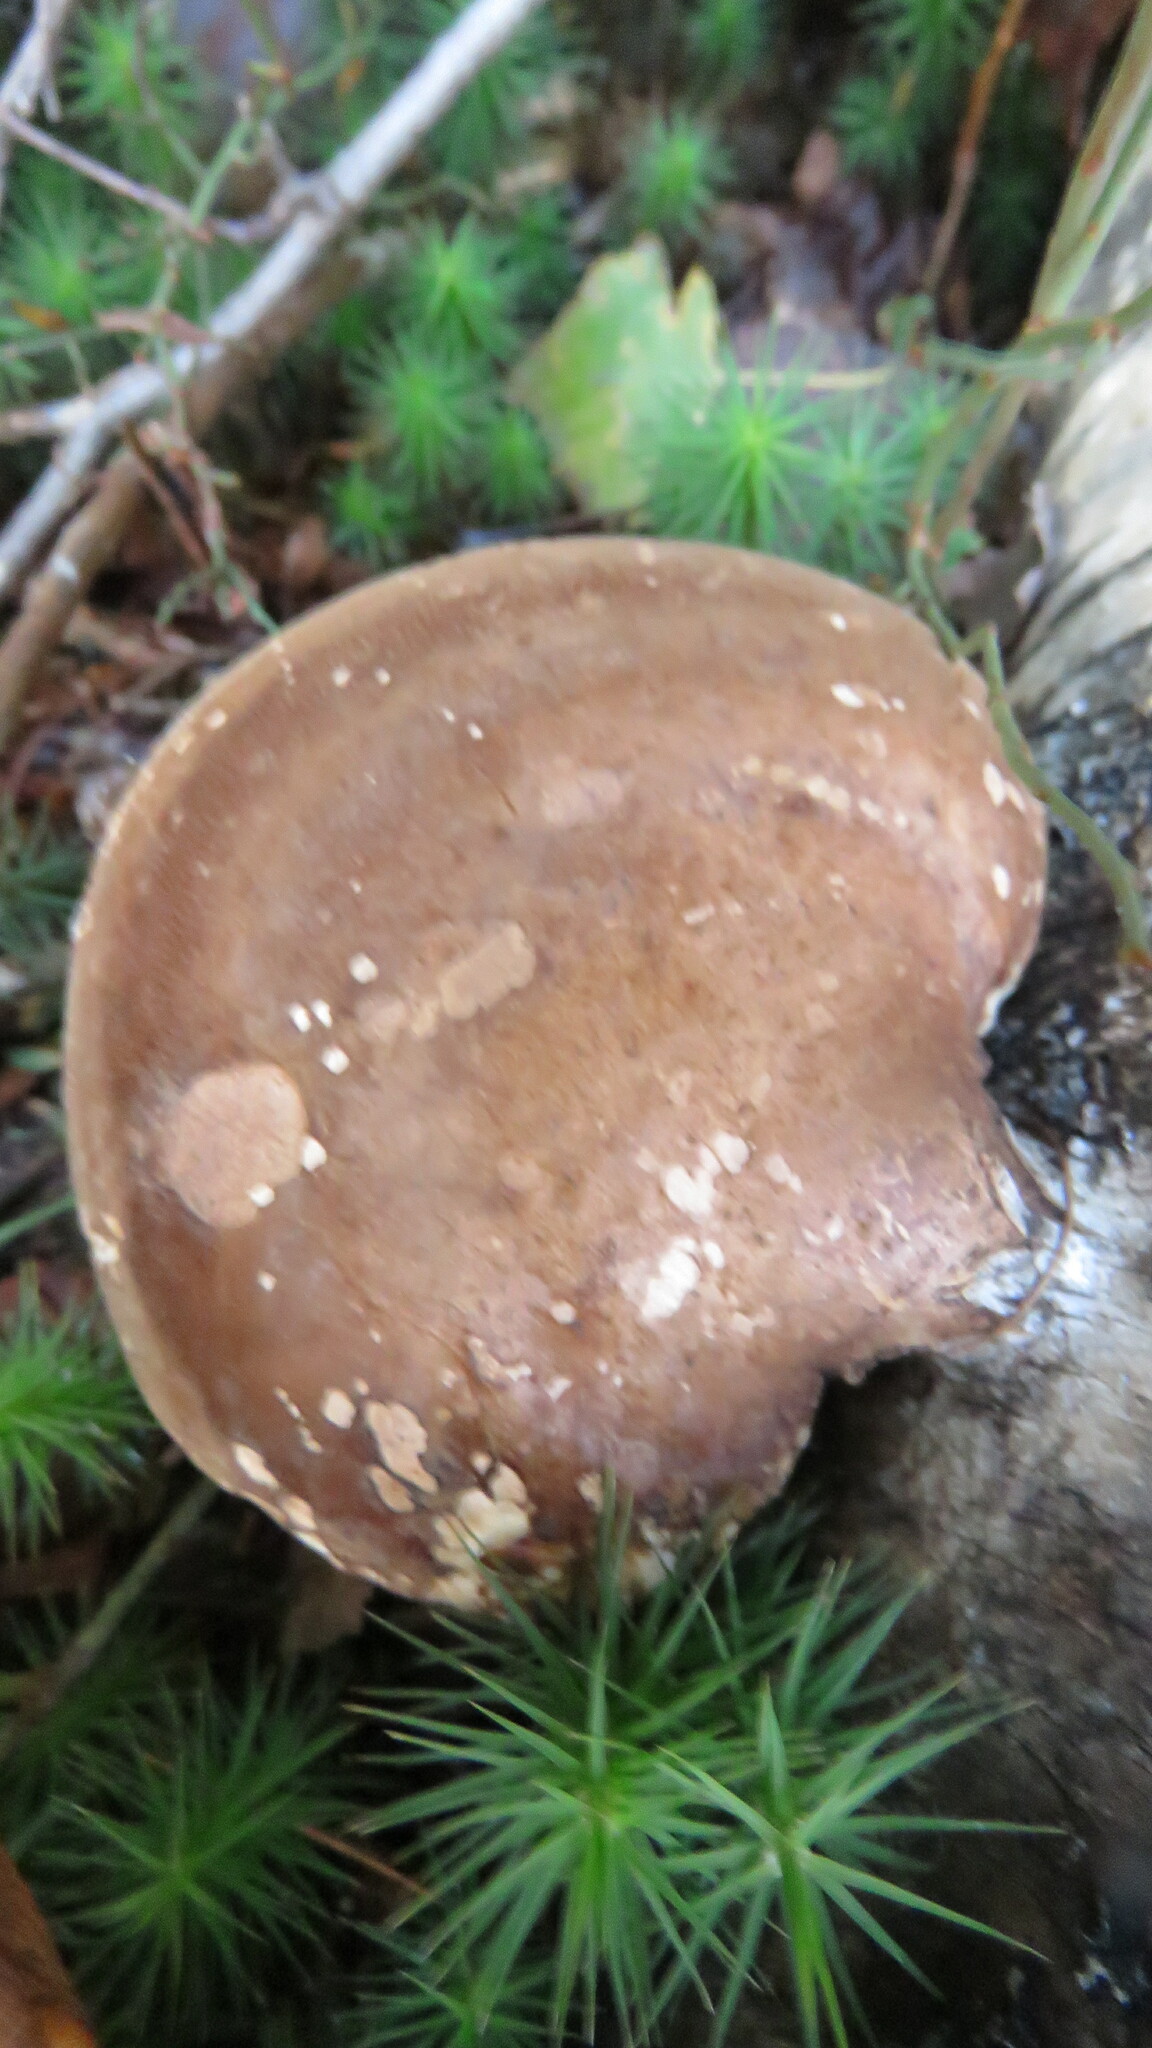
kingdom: Fungi
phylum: Basidiomycota
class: Agaricomycetes
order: Polyporales
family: Fomitopsidaceae
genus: Fomitopsis
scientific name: Fomitopsis betulina
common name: Birch polypore
